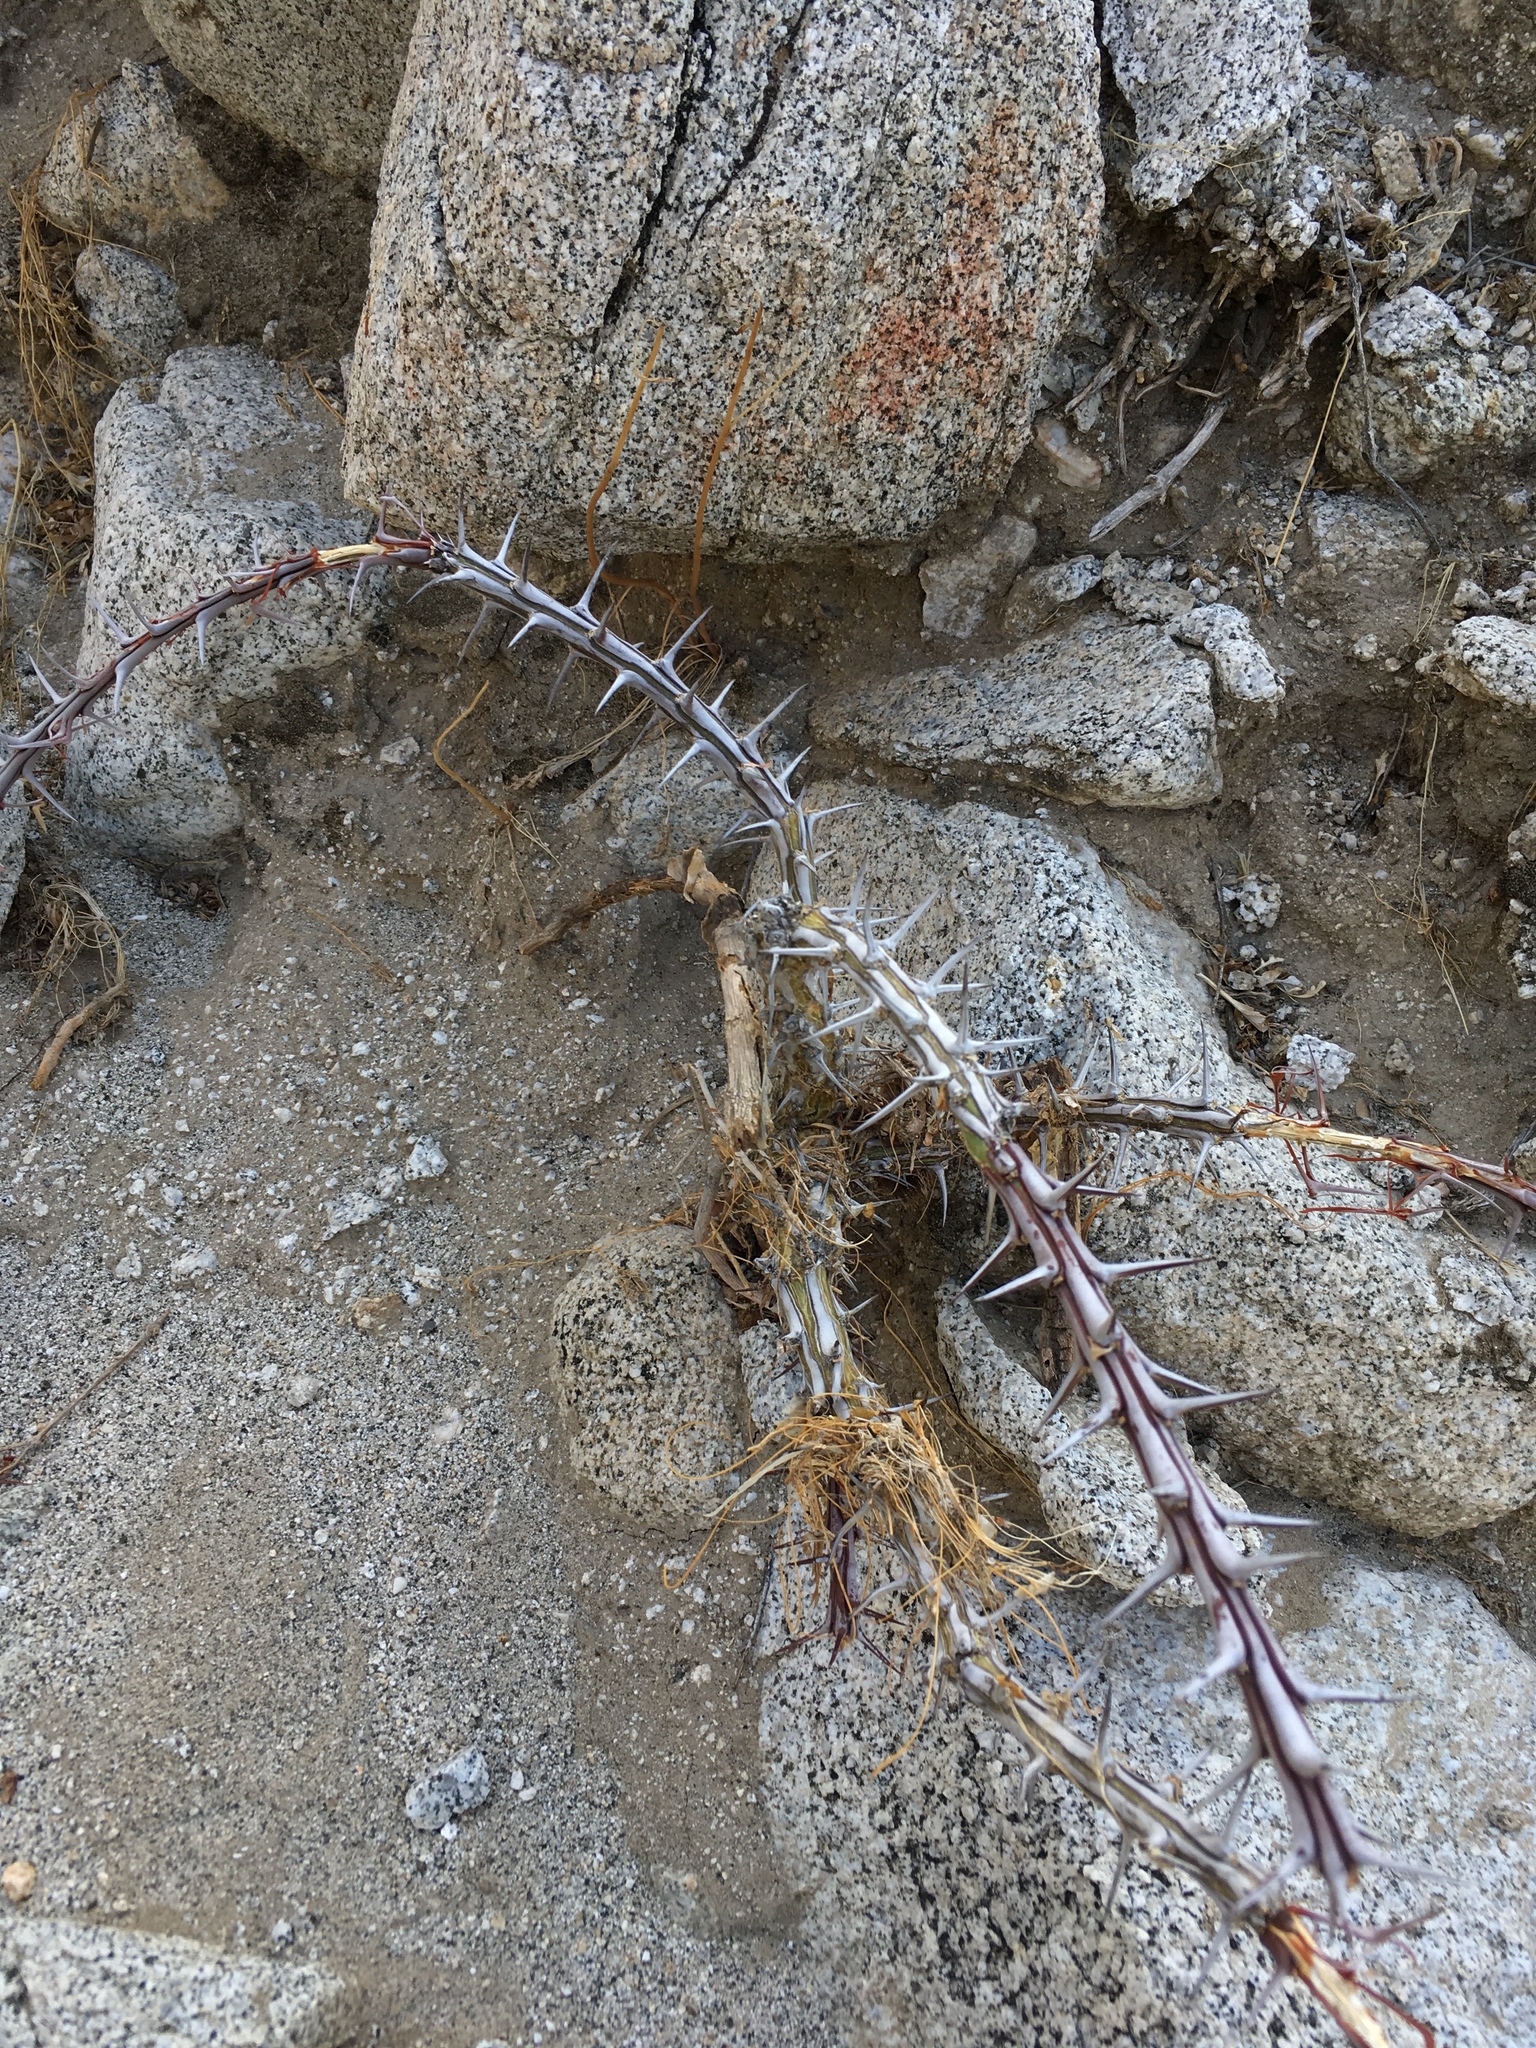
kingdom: Plantae
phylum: Tracheophyta
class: Magnoliopsida
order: Ericales
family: Fouquieriaceae
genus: Fouquieria
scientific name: Fouquieria splendens
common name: Vine-cactus
